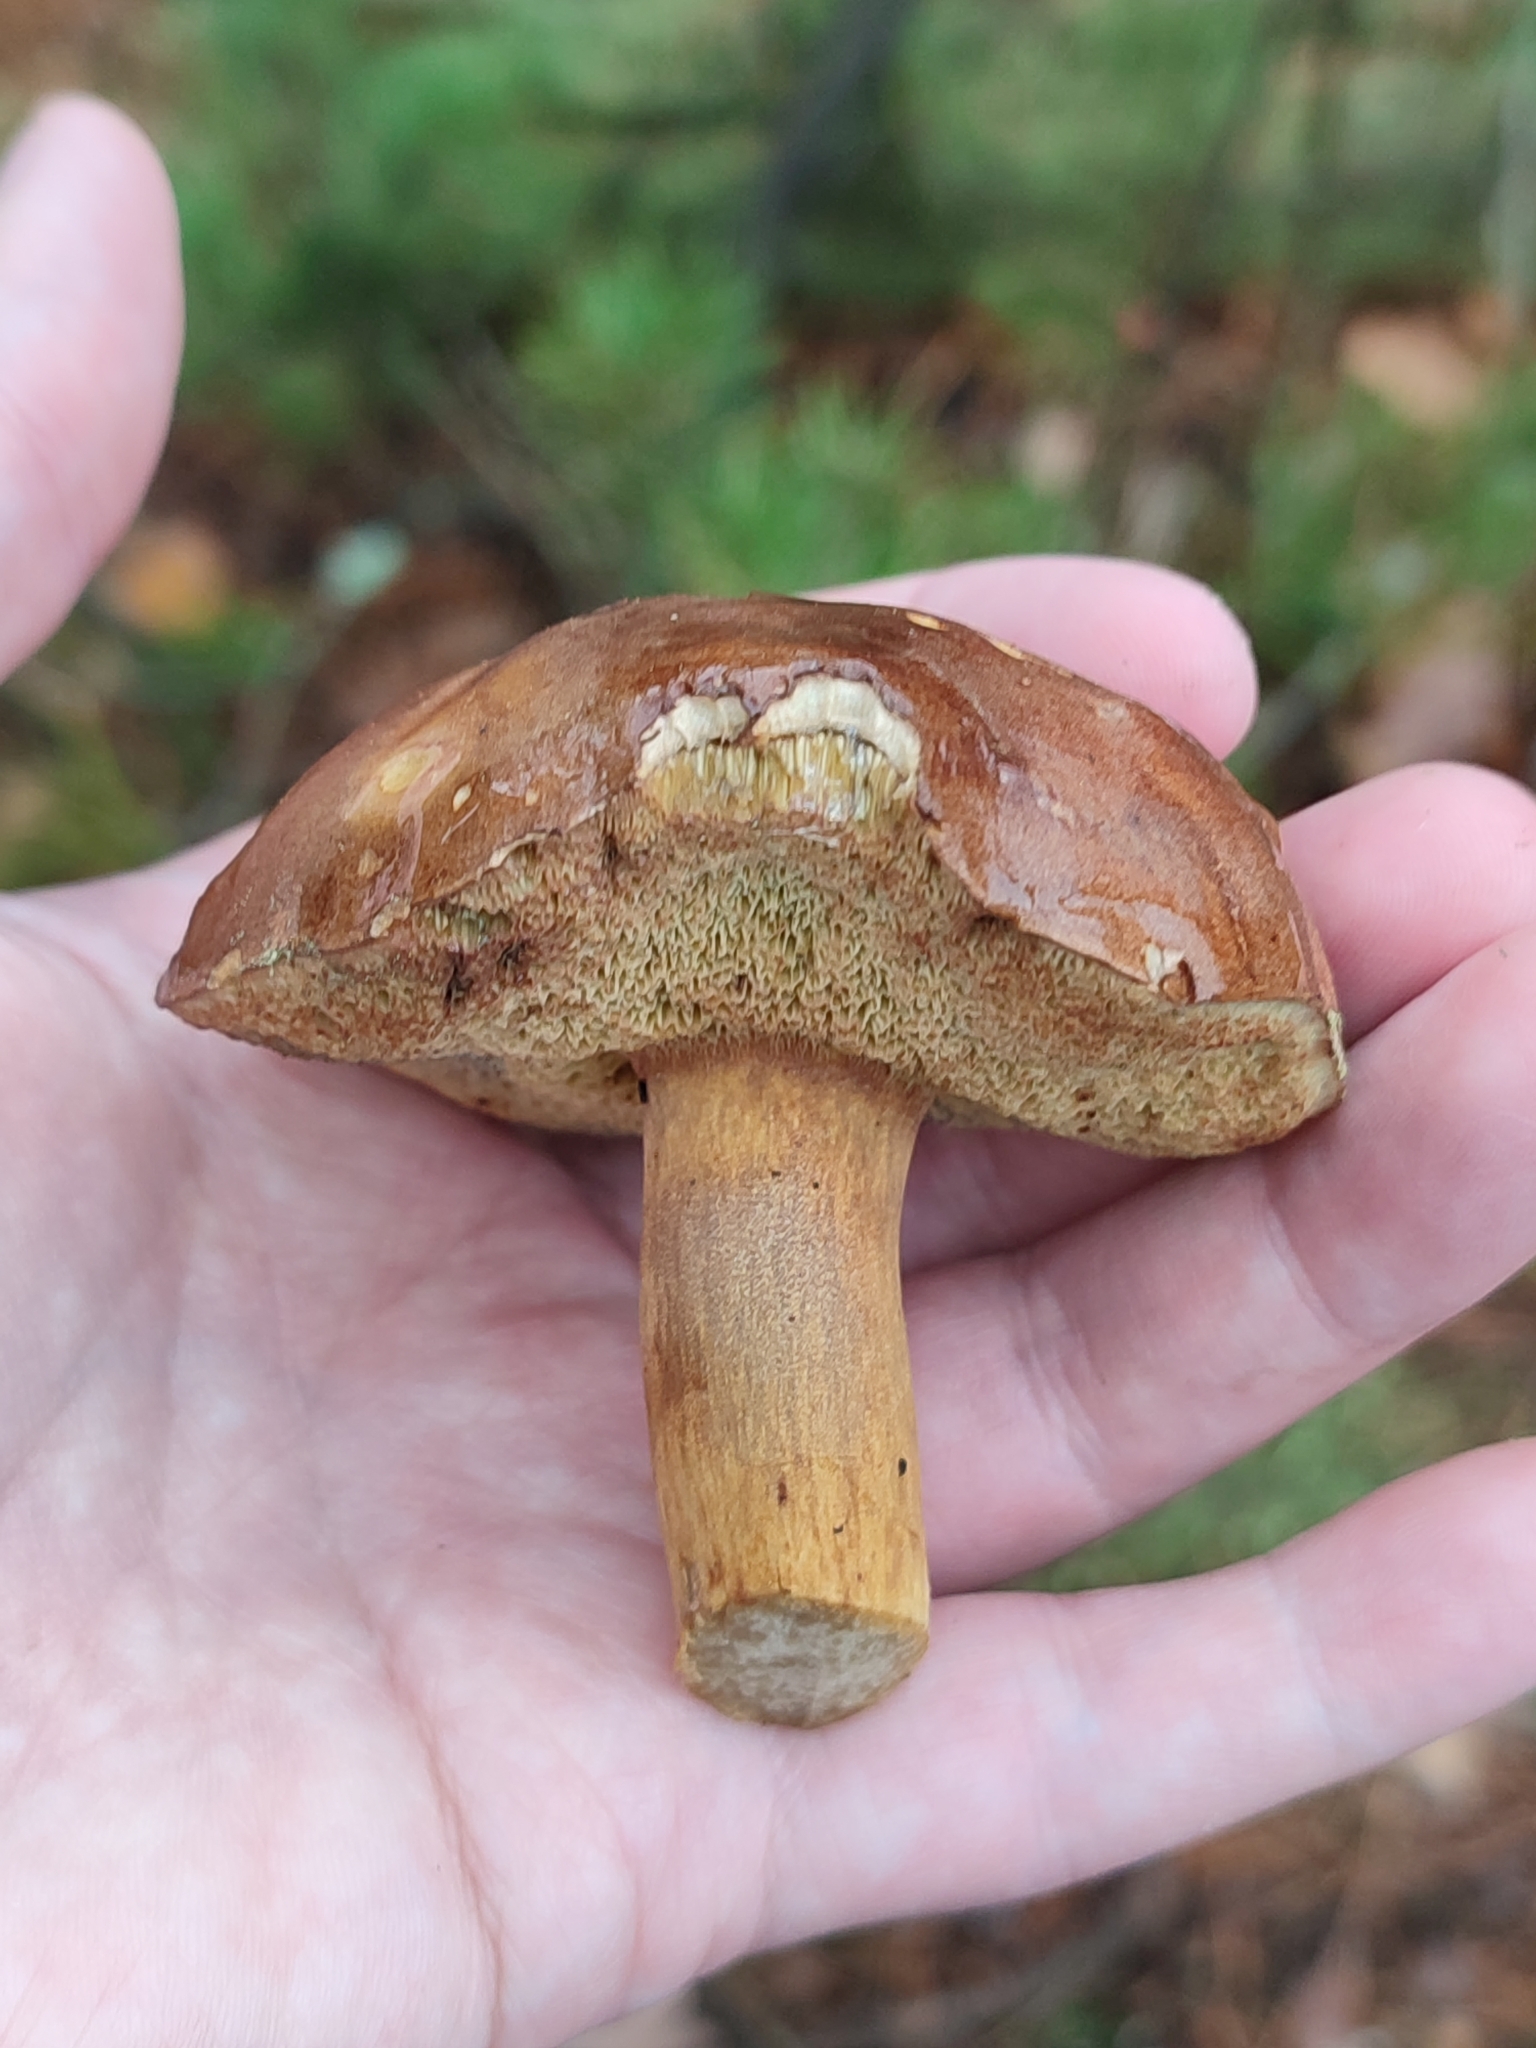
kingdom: Fungi
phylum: Basidiomycota
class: Agaricomycetes
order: Boletales
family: Boletaceae
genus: Imleria
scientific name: Imleria badia
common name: Bay bolete
